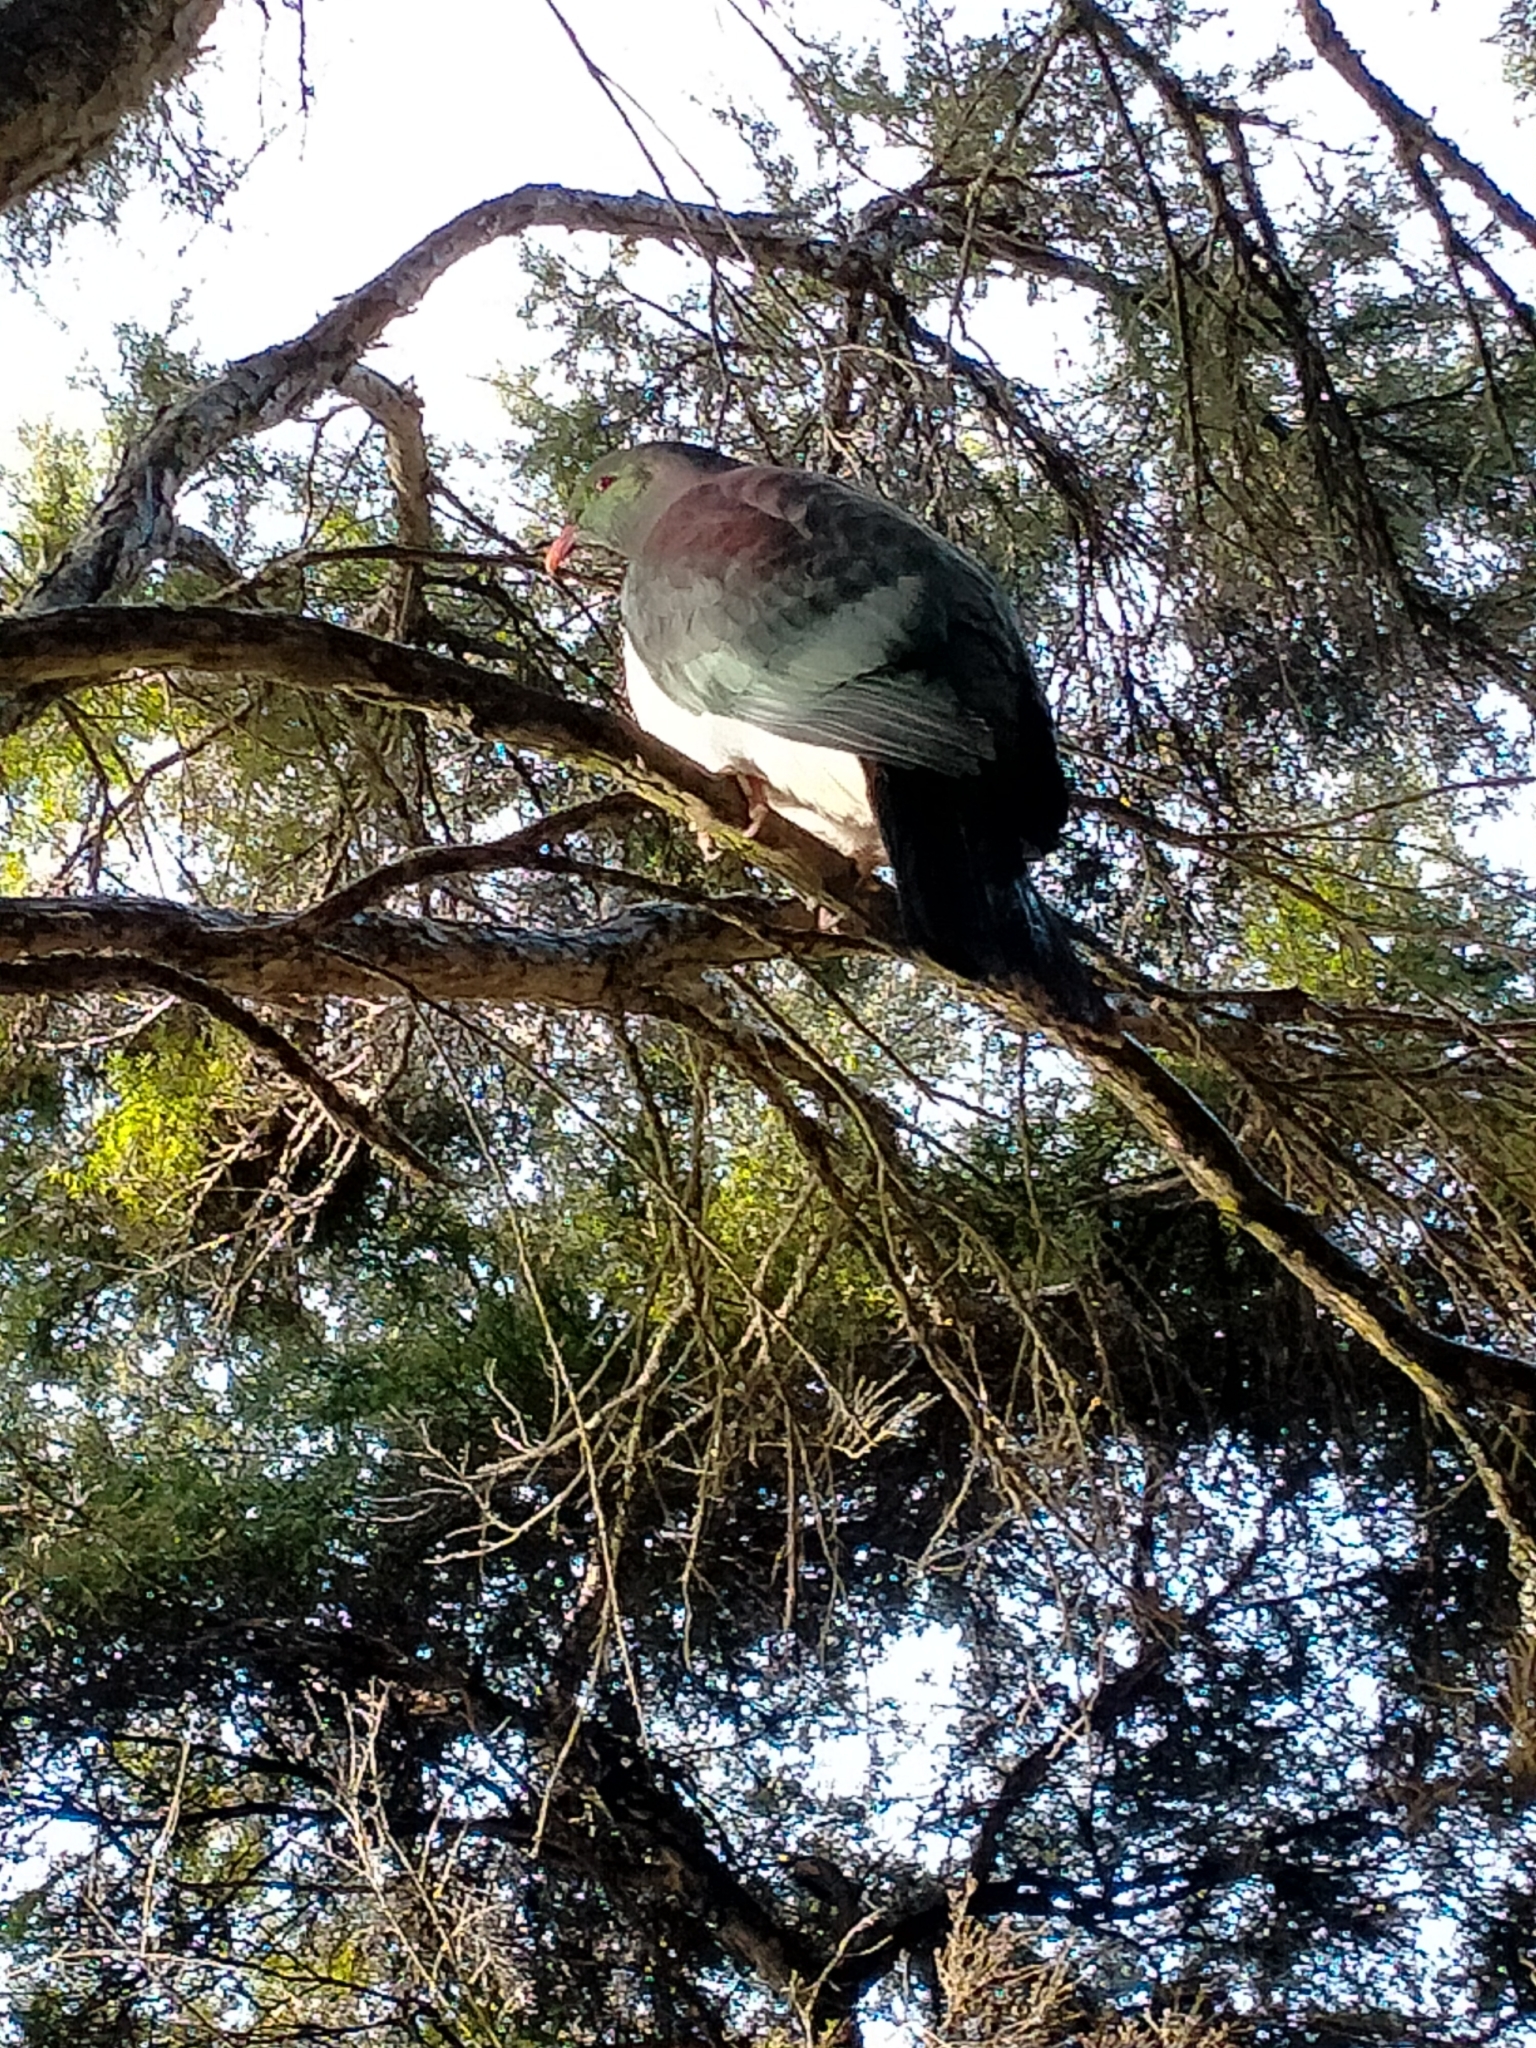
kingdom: Animalia
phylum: Chordata
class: Aves
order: Columbiformes
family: Columbidae
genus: Hemiphaga
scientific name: Hemiphaga novaeseelandiae
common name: New zealand pigeon
